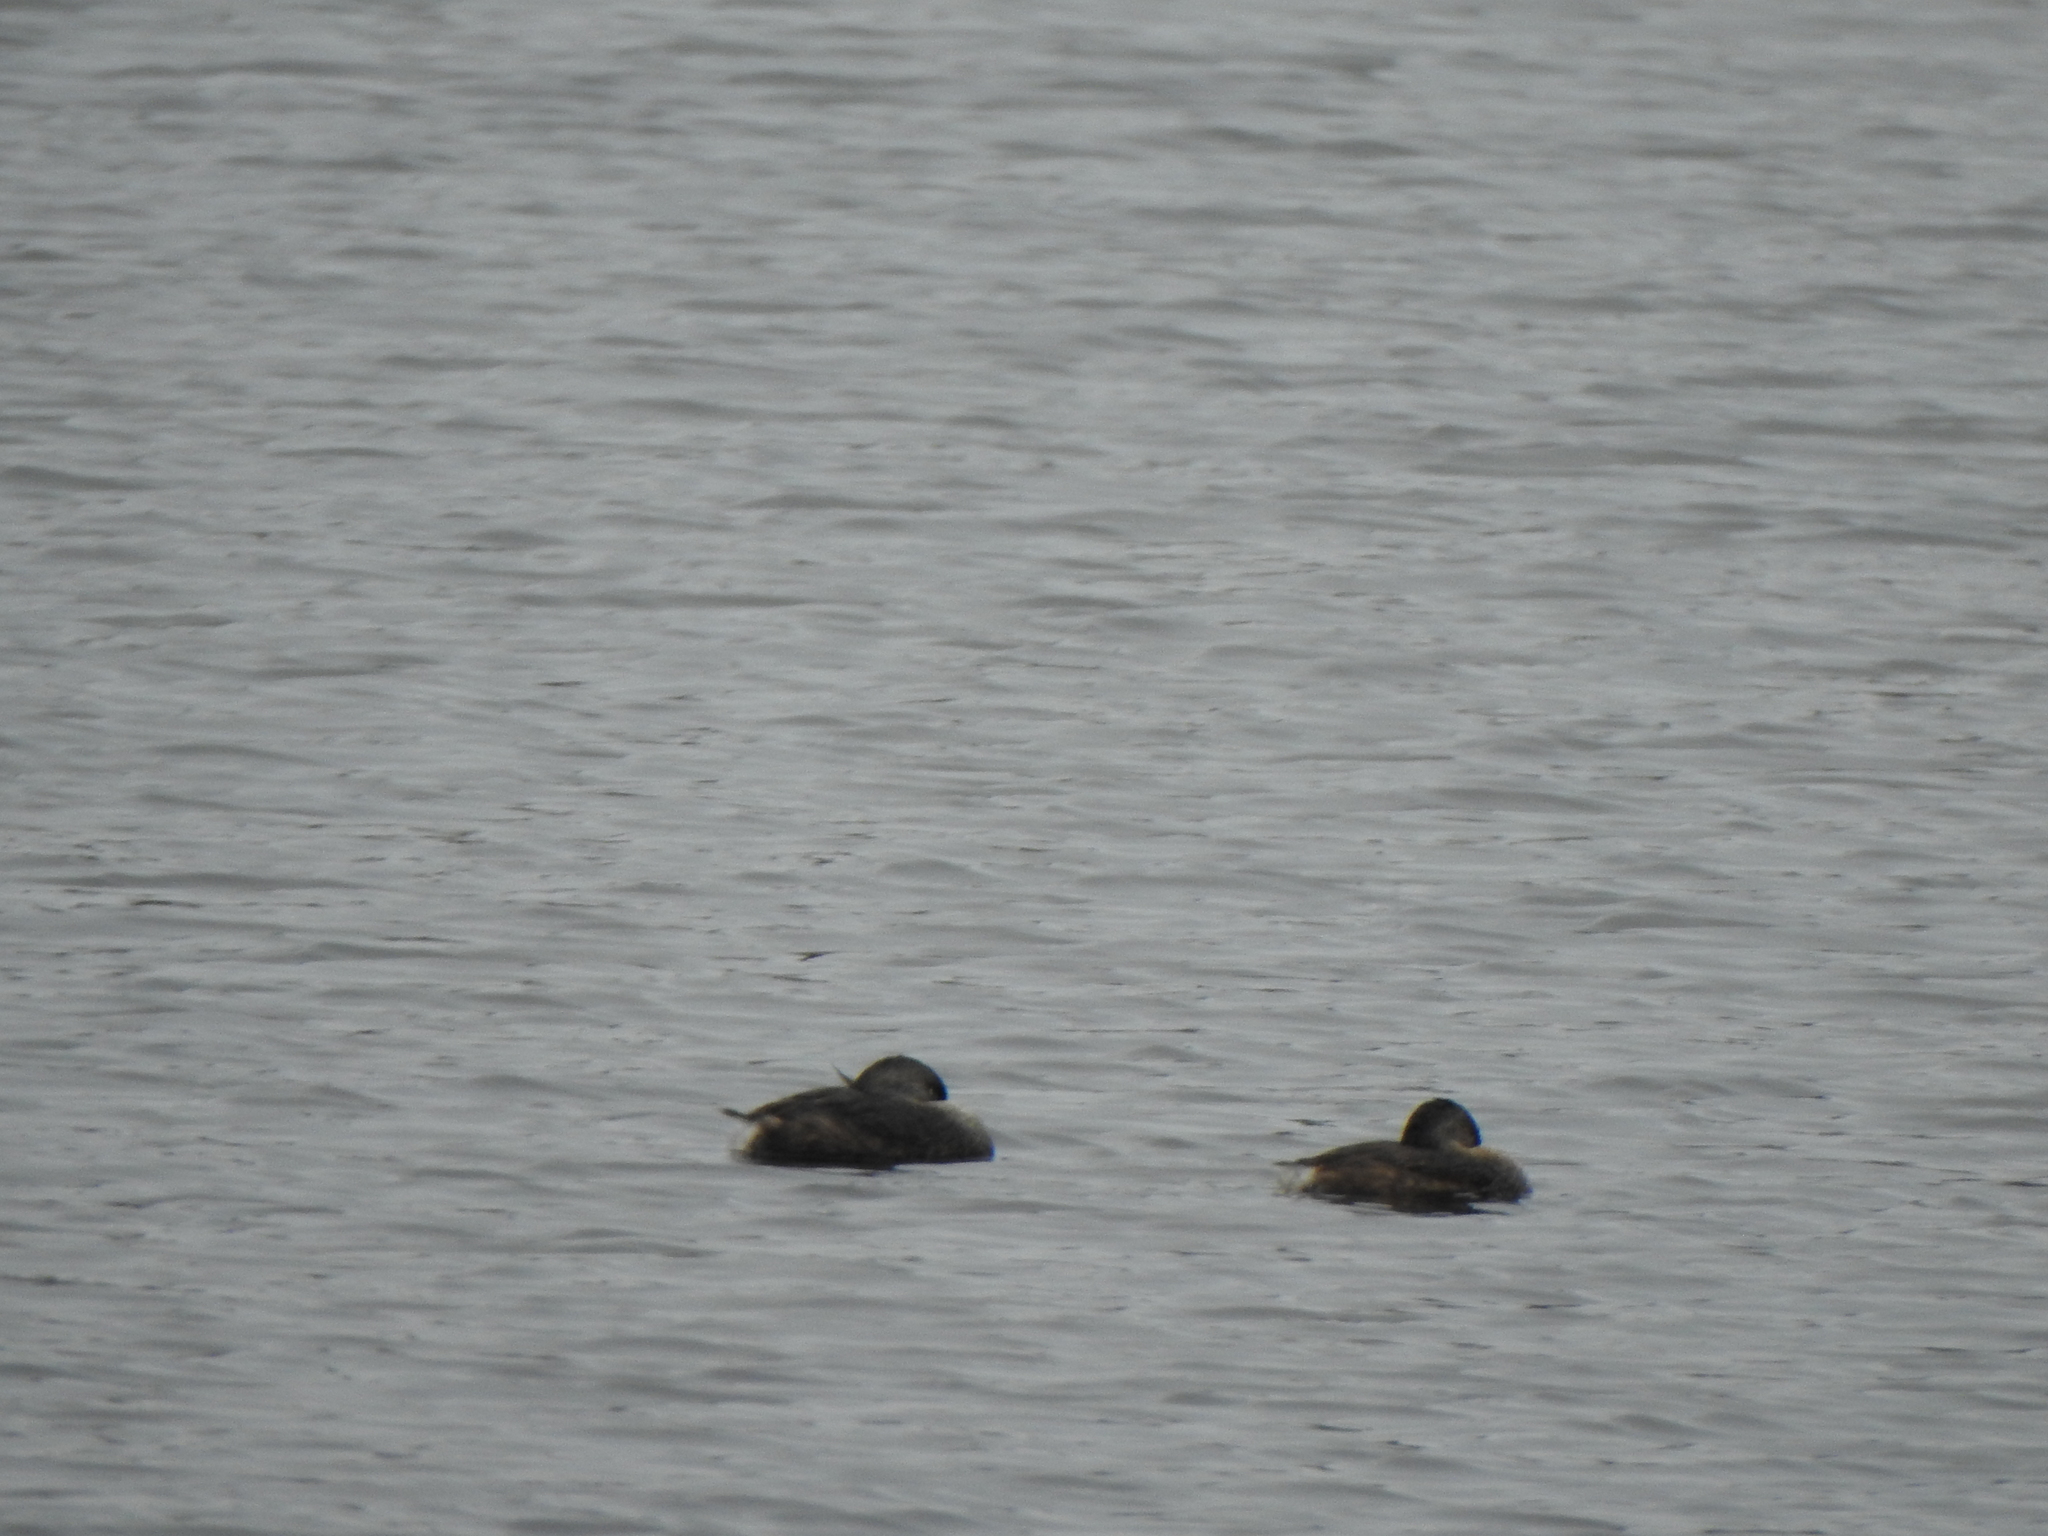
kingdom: Animalia
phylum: Chordata
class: Aves
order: Podicipediformes
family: Podicipedidae
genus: Podilymbus
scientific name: Podilymbus podiceps
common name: Pied-billed grebe
